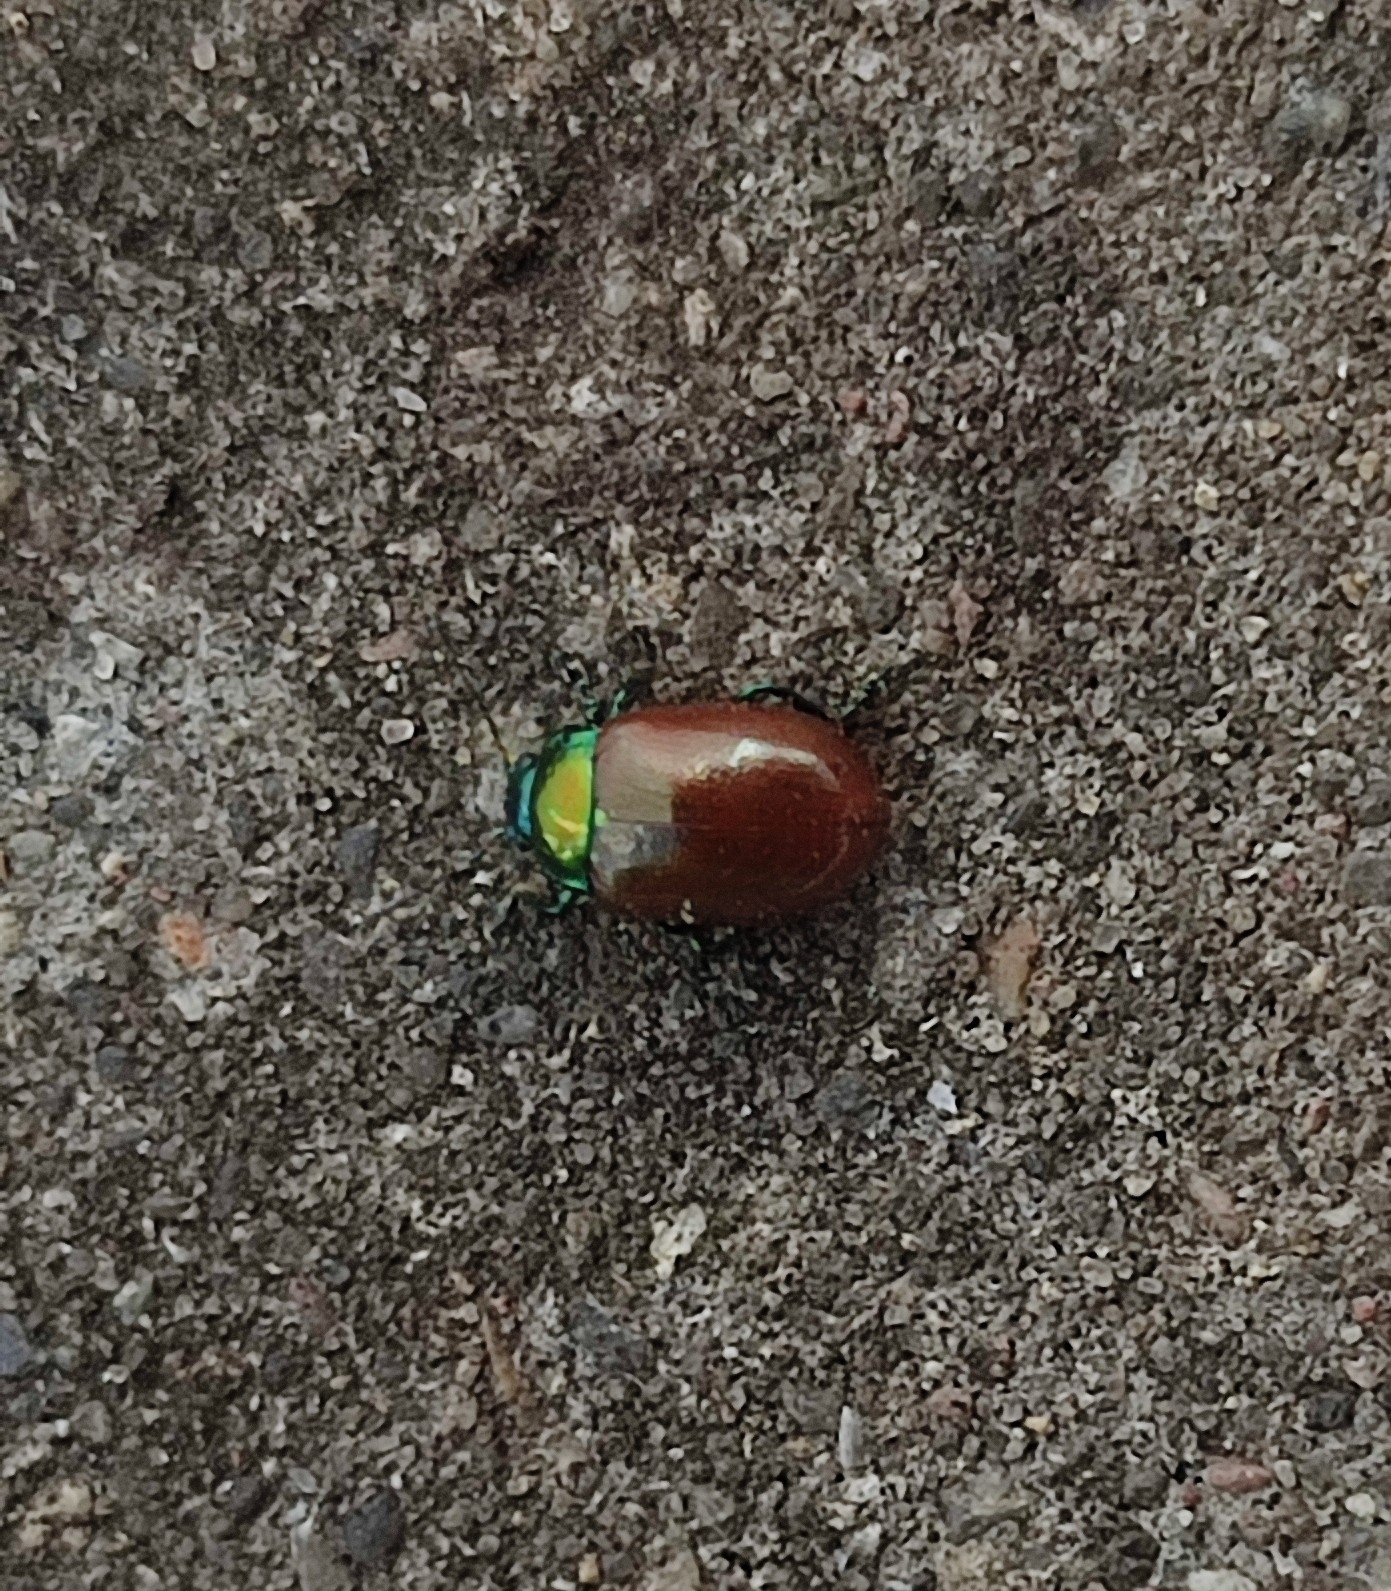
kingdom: Animalia
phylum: Arthropoda
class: Insecta
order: Coleoptera
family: Chrysomelidae
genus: Chrysomela
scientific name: Chrysomela polita
